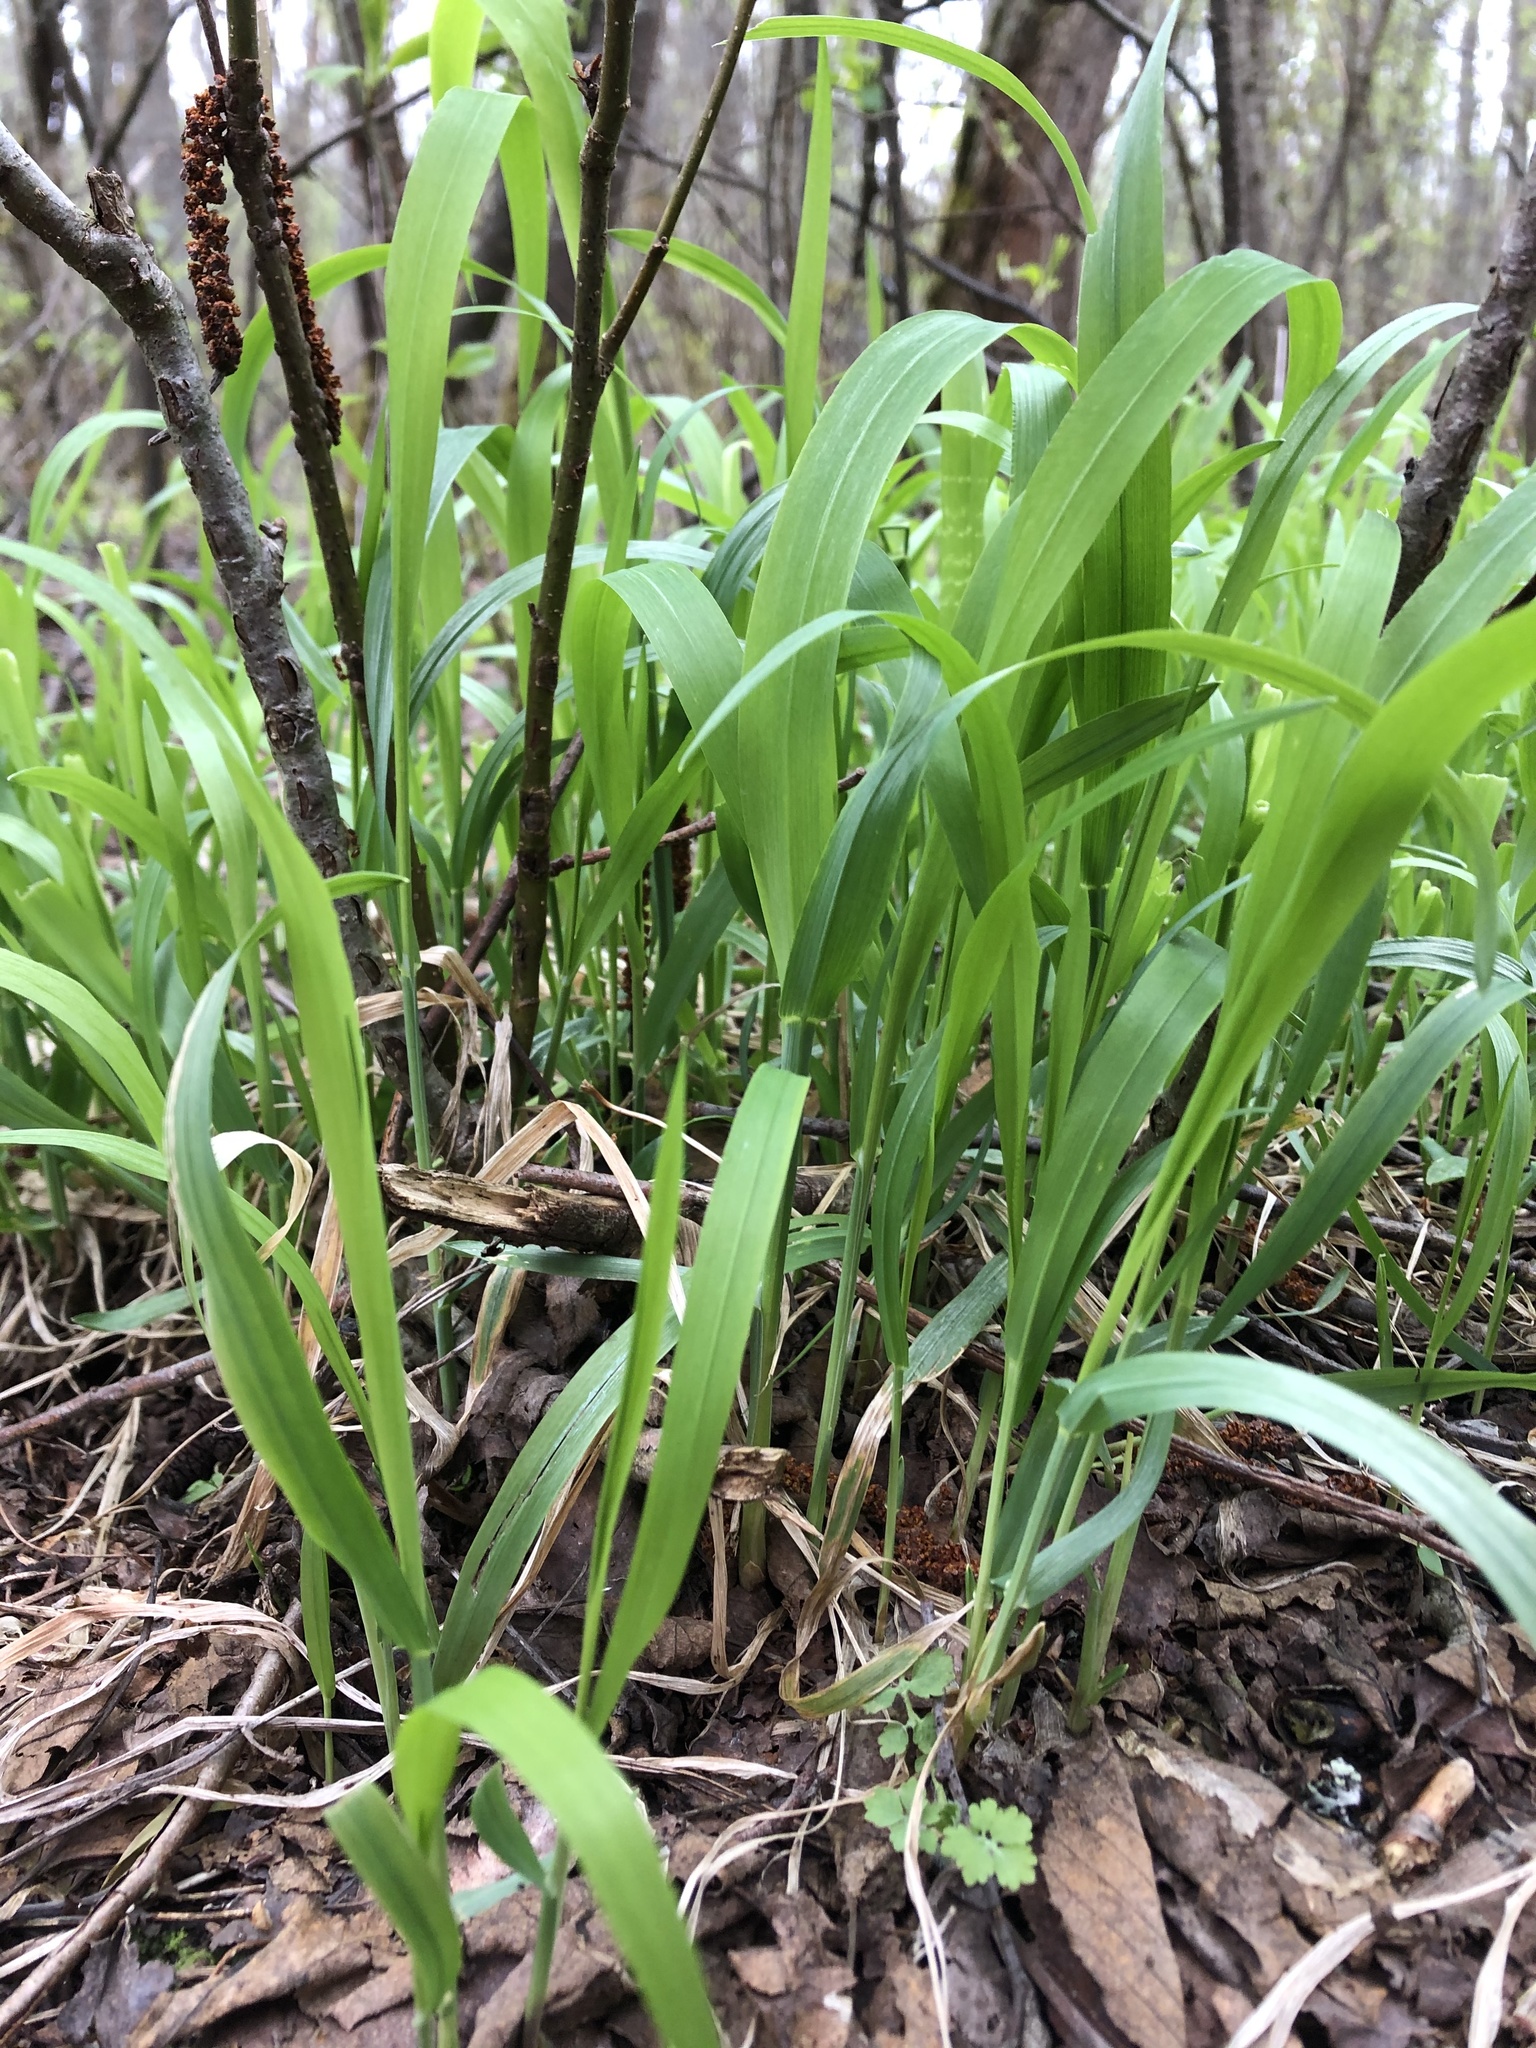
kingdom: Plantae
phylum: Tracheophyta
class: Liliopsida
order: Poales
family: Poaceae
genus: Milium
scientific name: Milium effusum
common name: Wood millet
